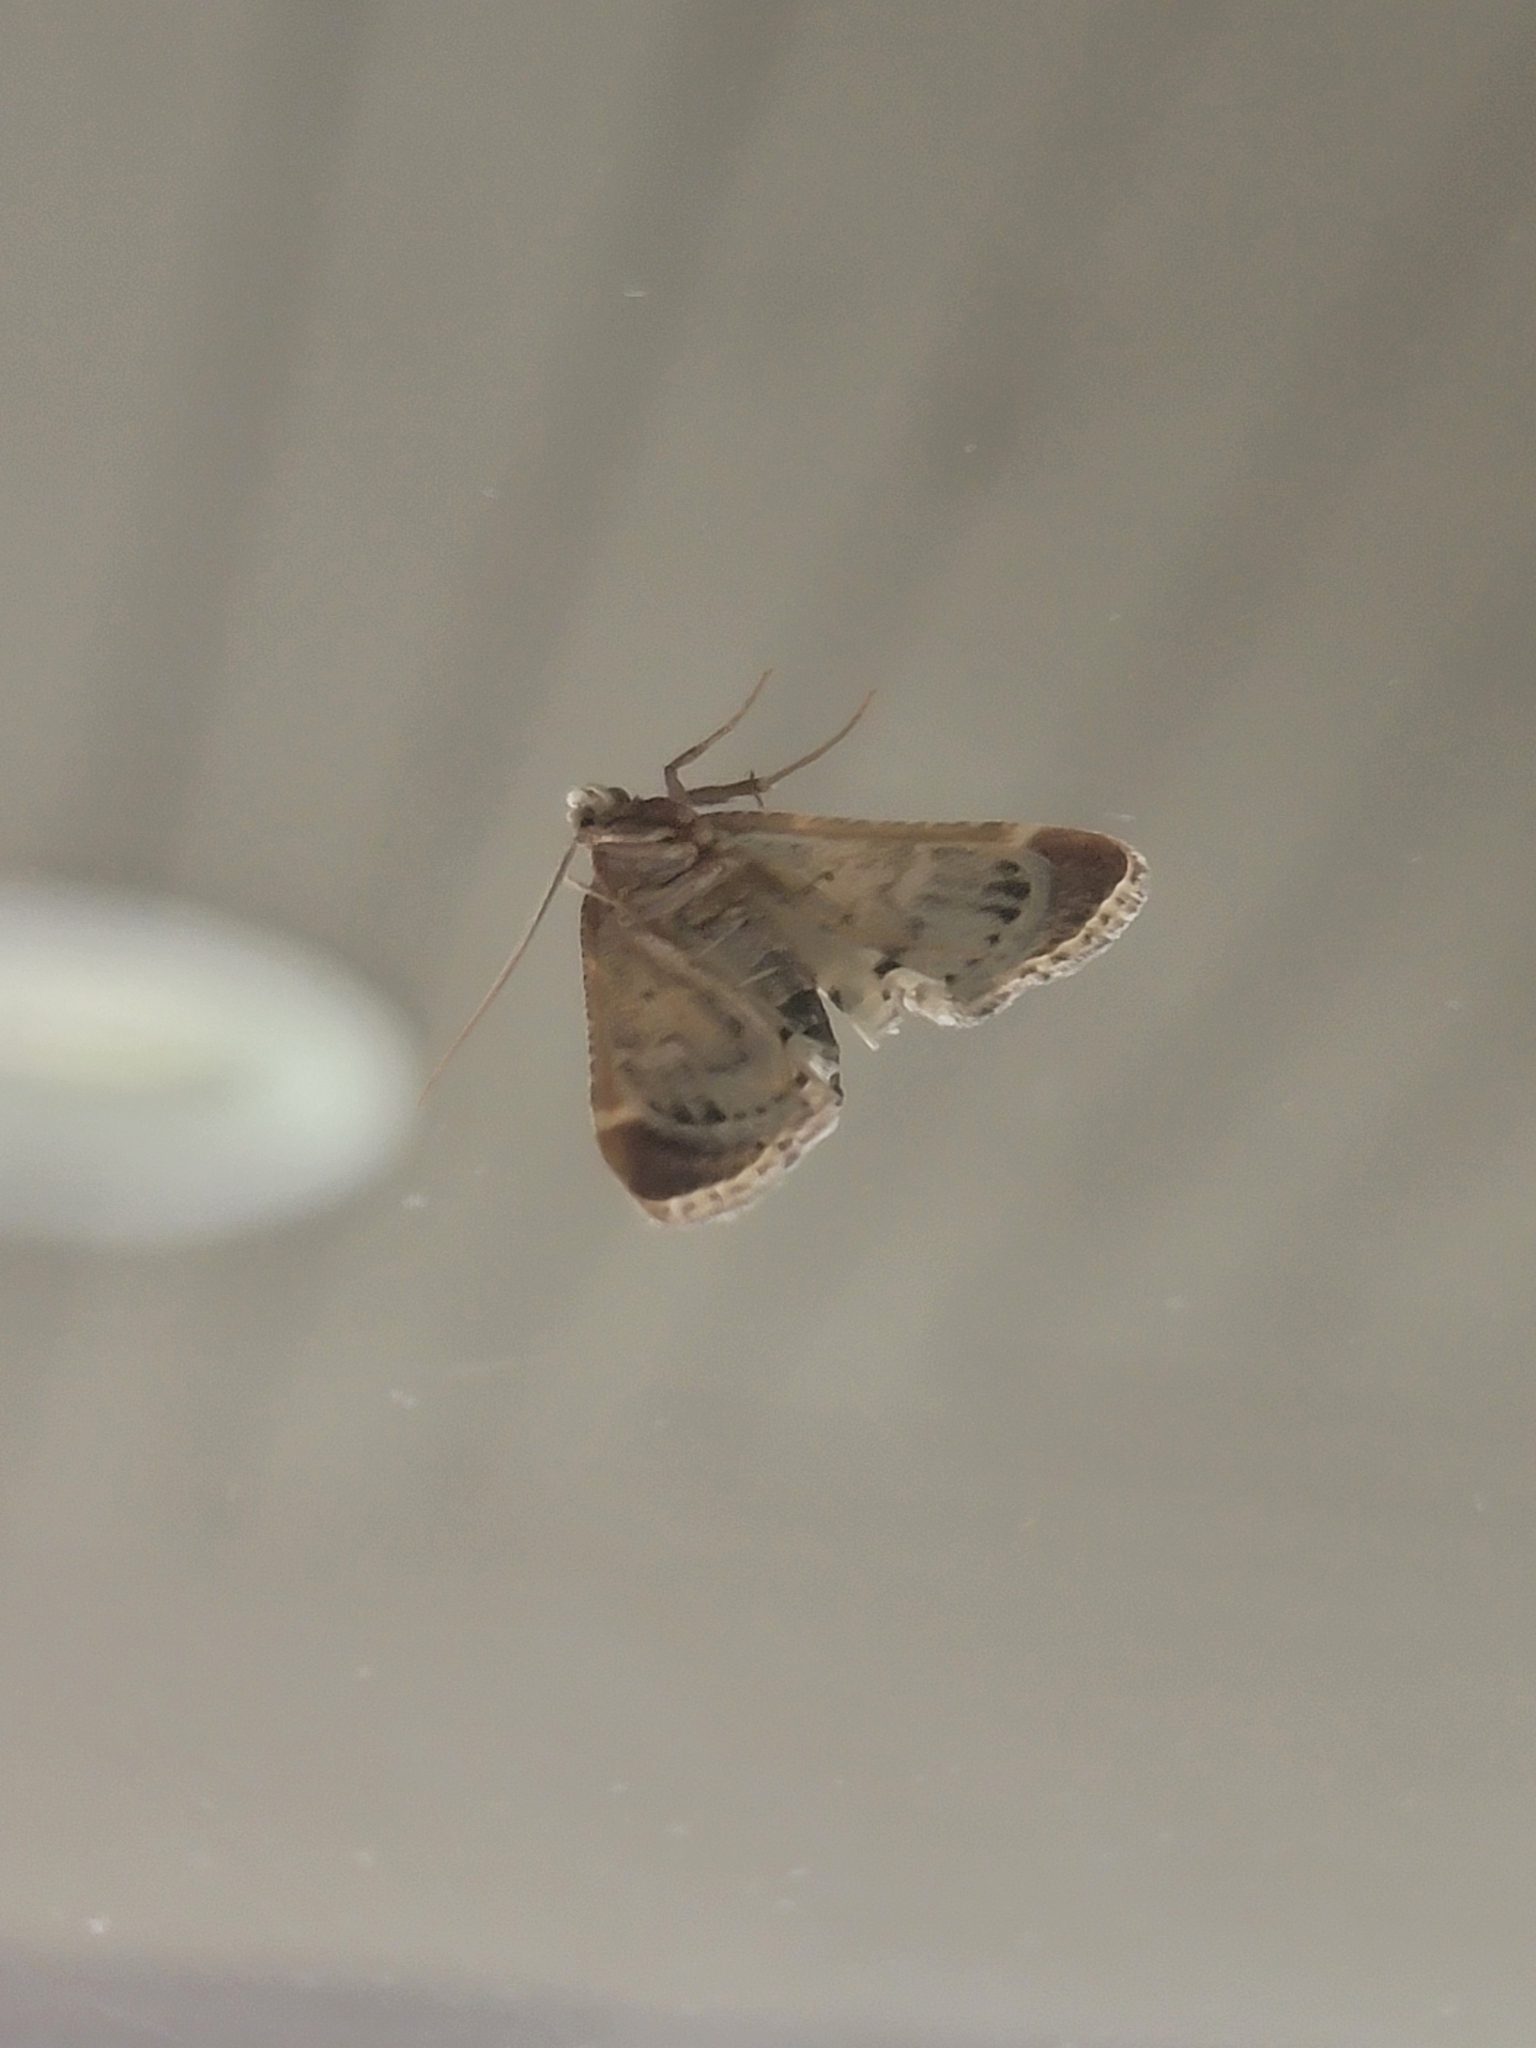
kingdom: Animalia
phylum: Arthropoda
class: Insecta
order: Lepidoptera
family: Pyralidae
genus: Pyralis
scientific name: Pyralis farinalis
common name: Meal moth
